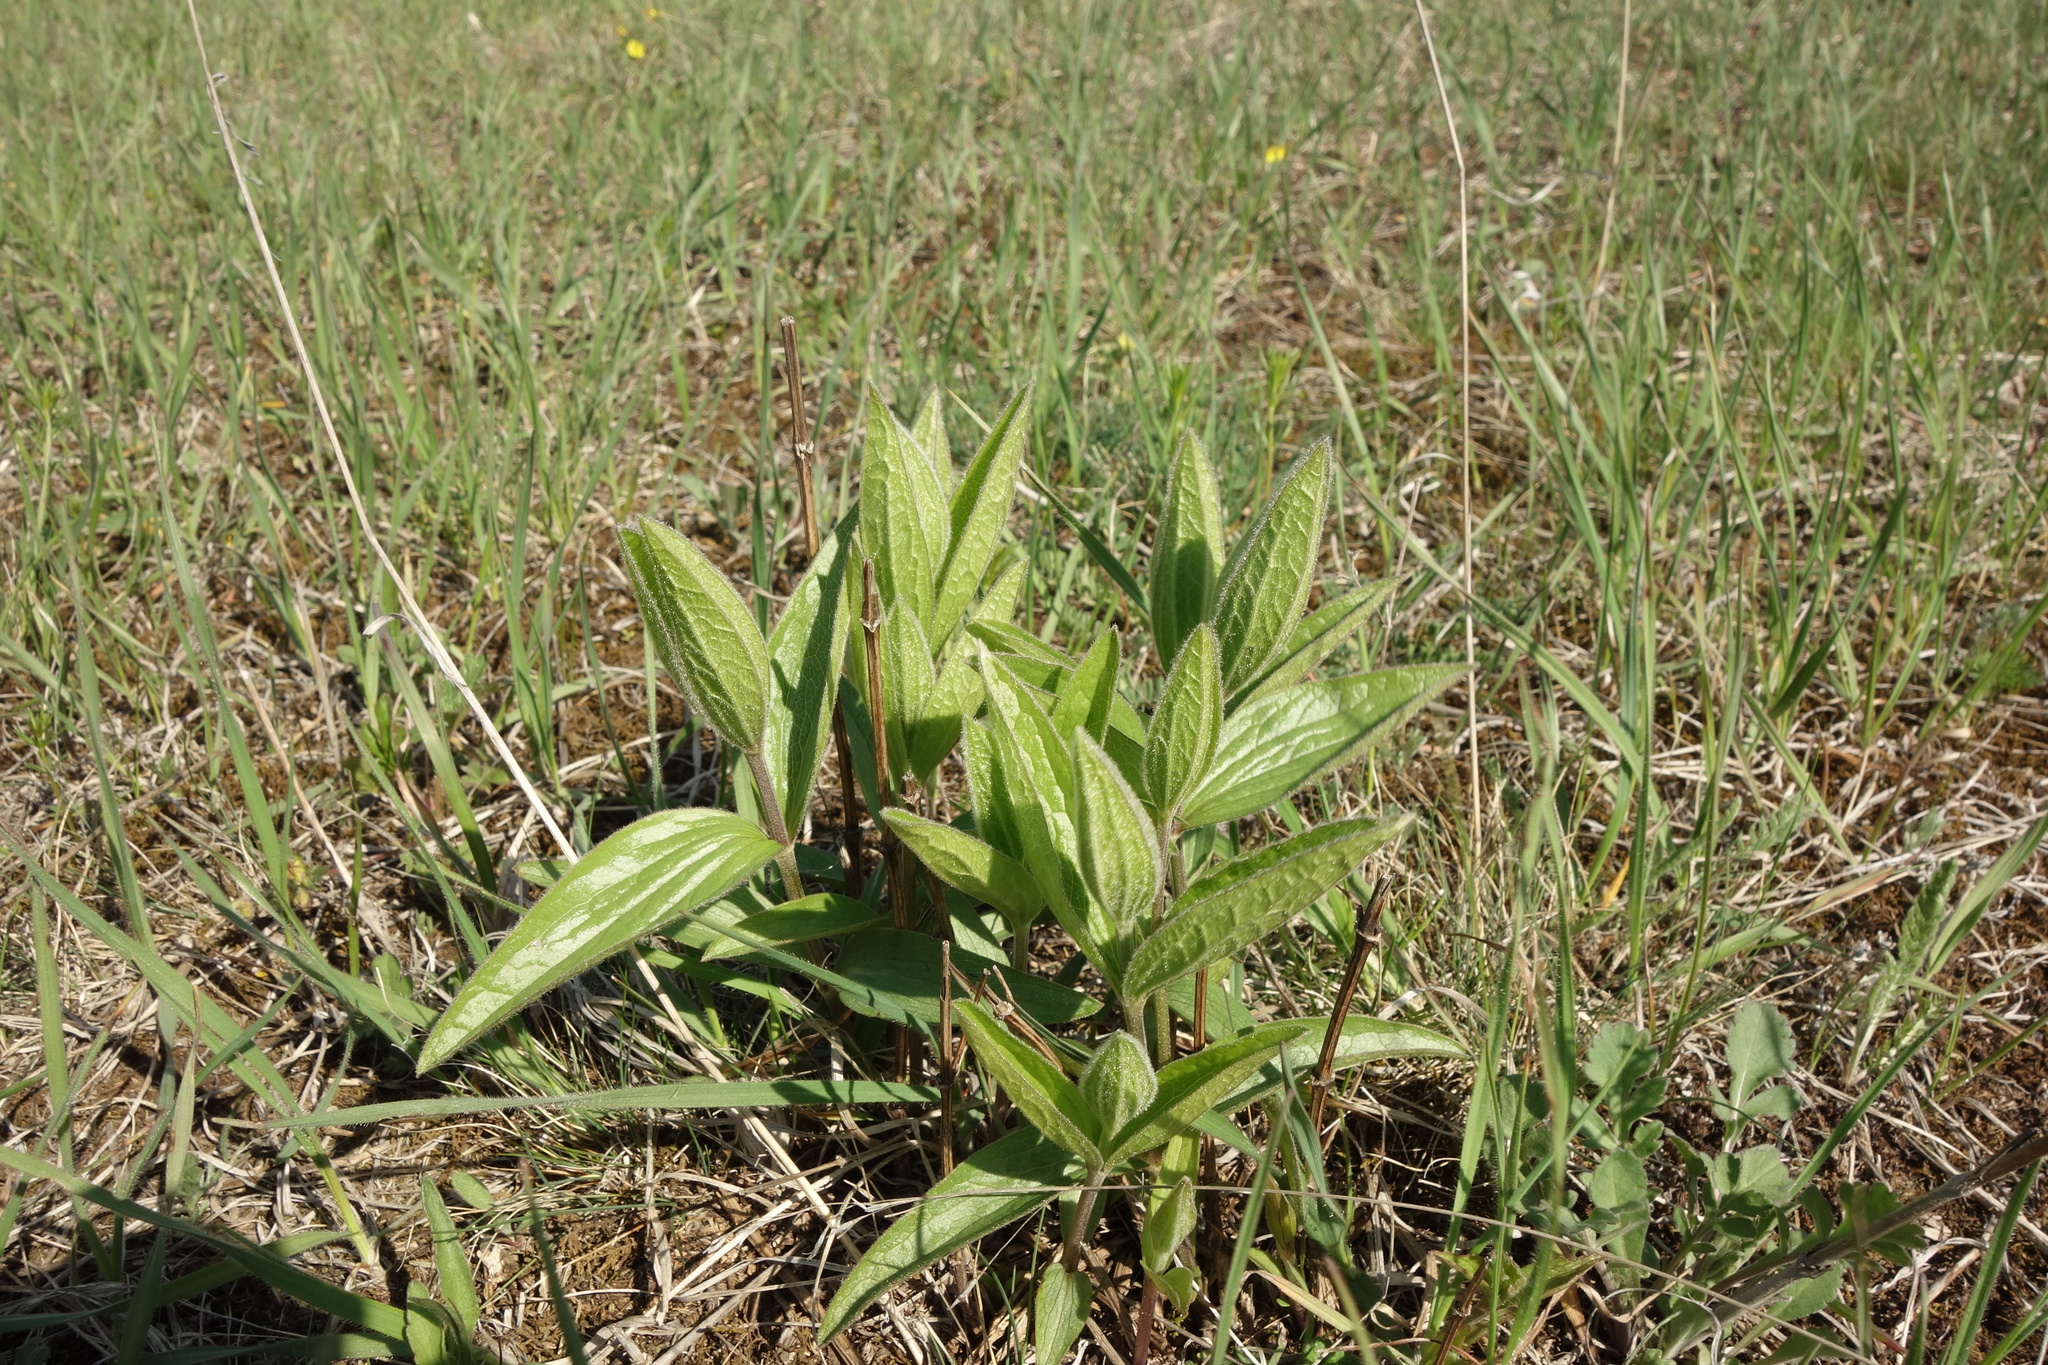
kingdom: Plantae
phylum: Tracheophyta
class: Magnoliopsida
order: Ranunculales
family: Ranunculaceae
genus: Clematis
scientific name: Clematis integrifolia
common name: Solitary clematis
